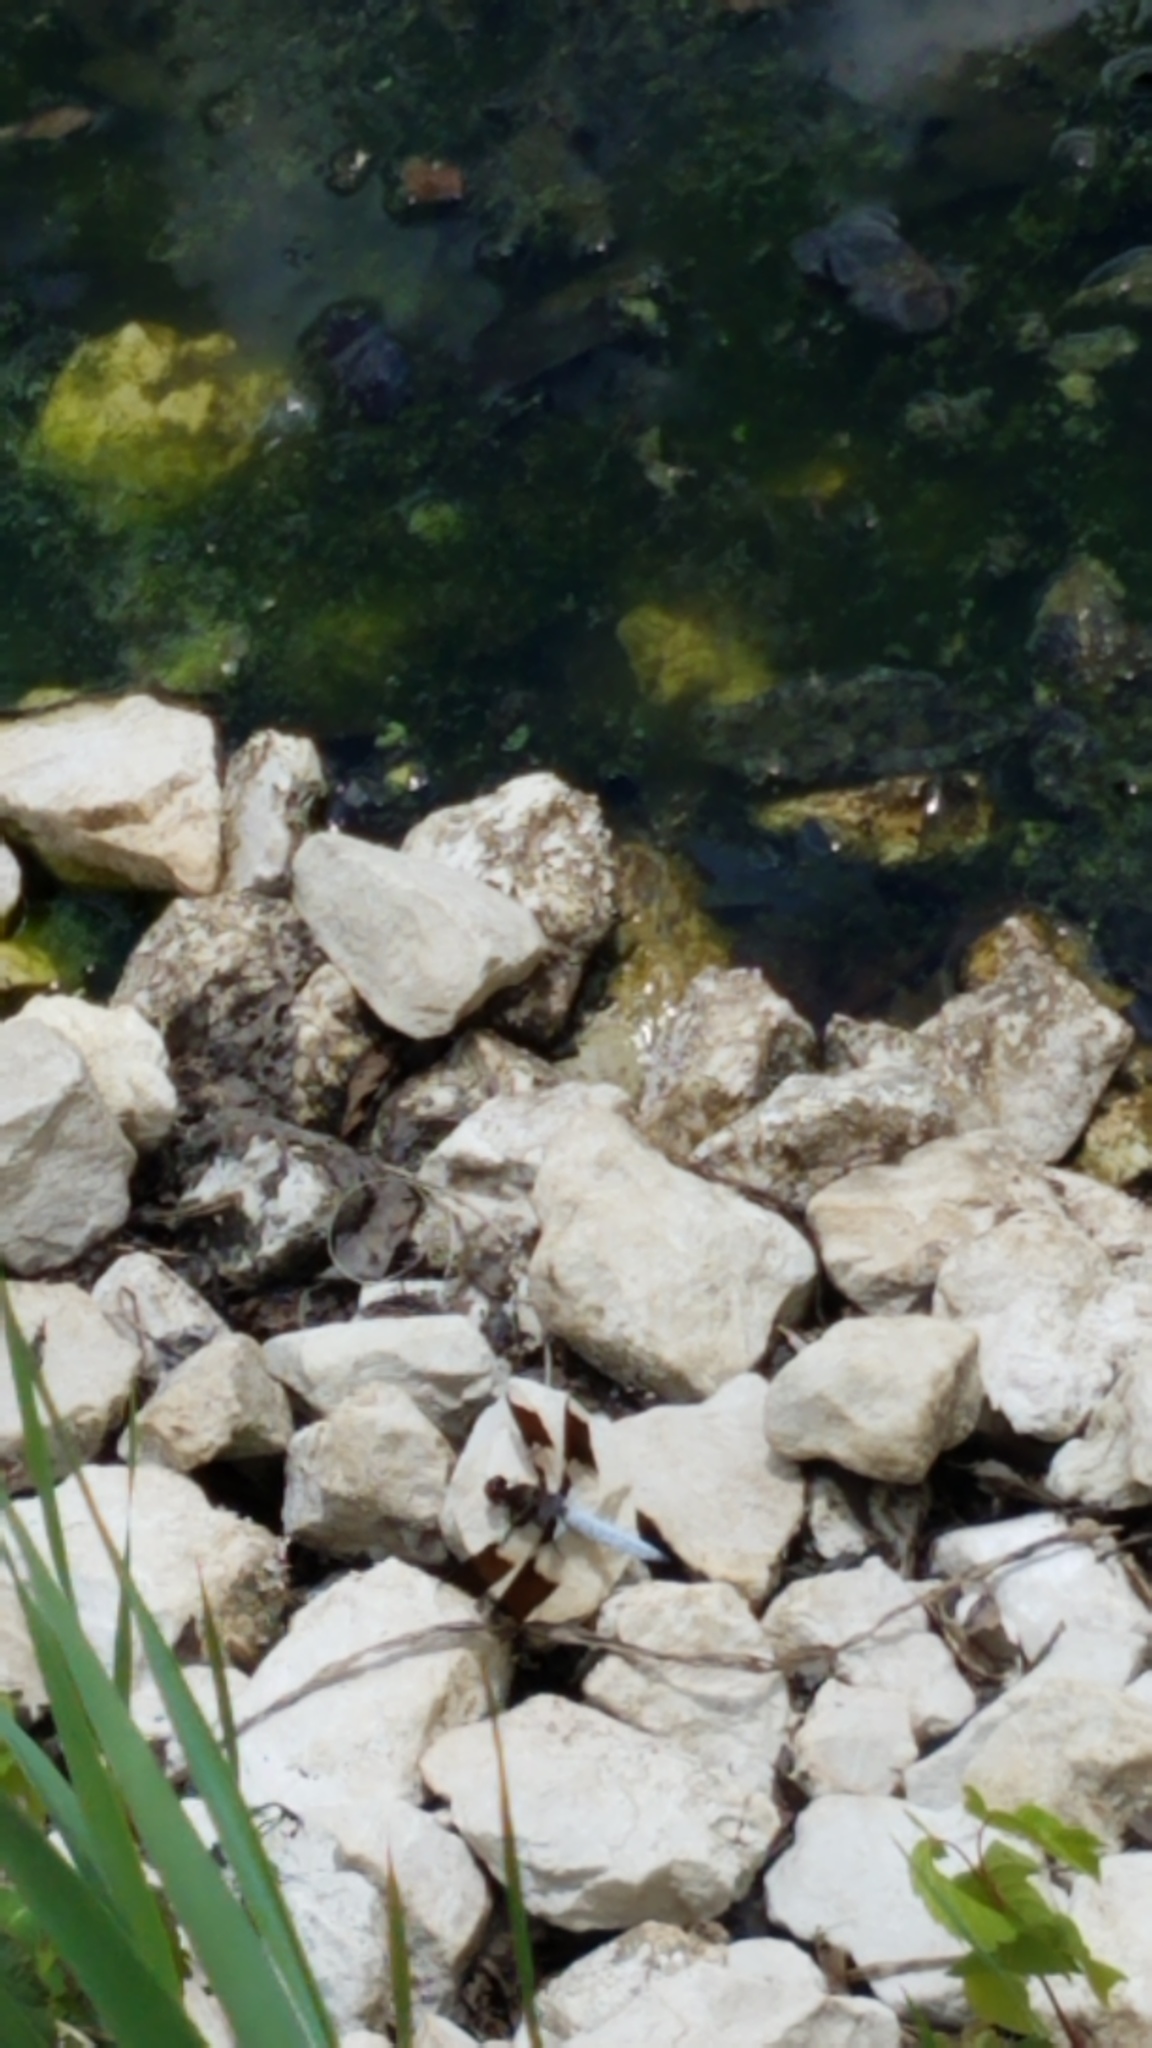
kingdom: Animalia
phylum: Arthropoda
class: Insecta
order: Odonata
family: Libellulidae
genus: Plathemis
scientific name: Plathemis lydia
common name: Common whitetail
